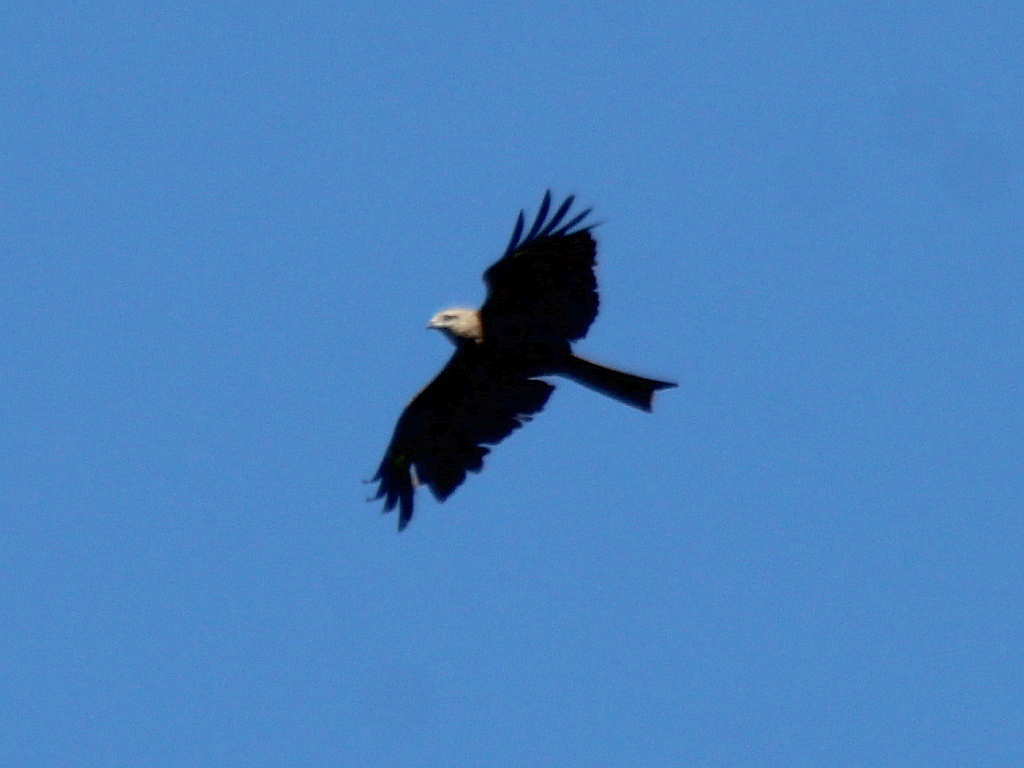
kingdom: Animalia
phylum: Chordata
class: Aves
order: Accipitriformes
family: Accipitridae
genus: Milvus
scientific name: Milvus migrans
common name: Black kite
